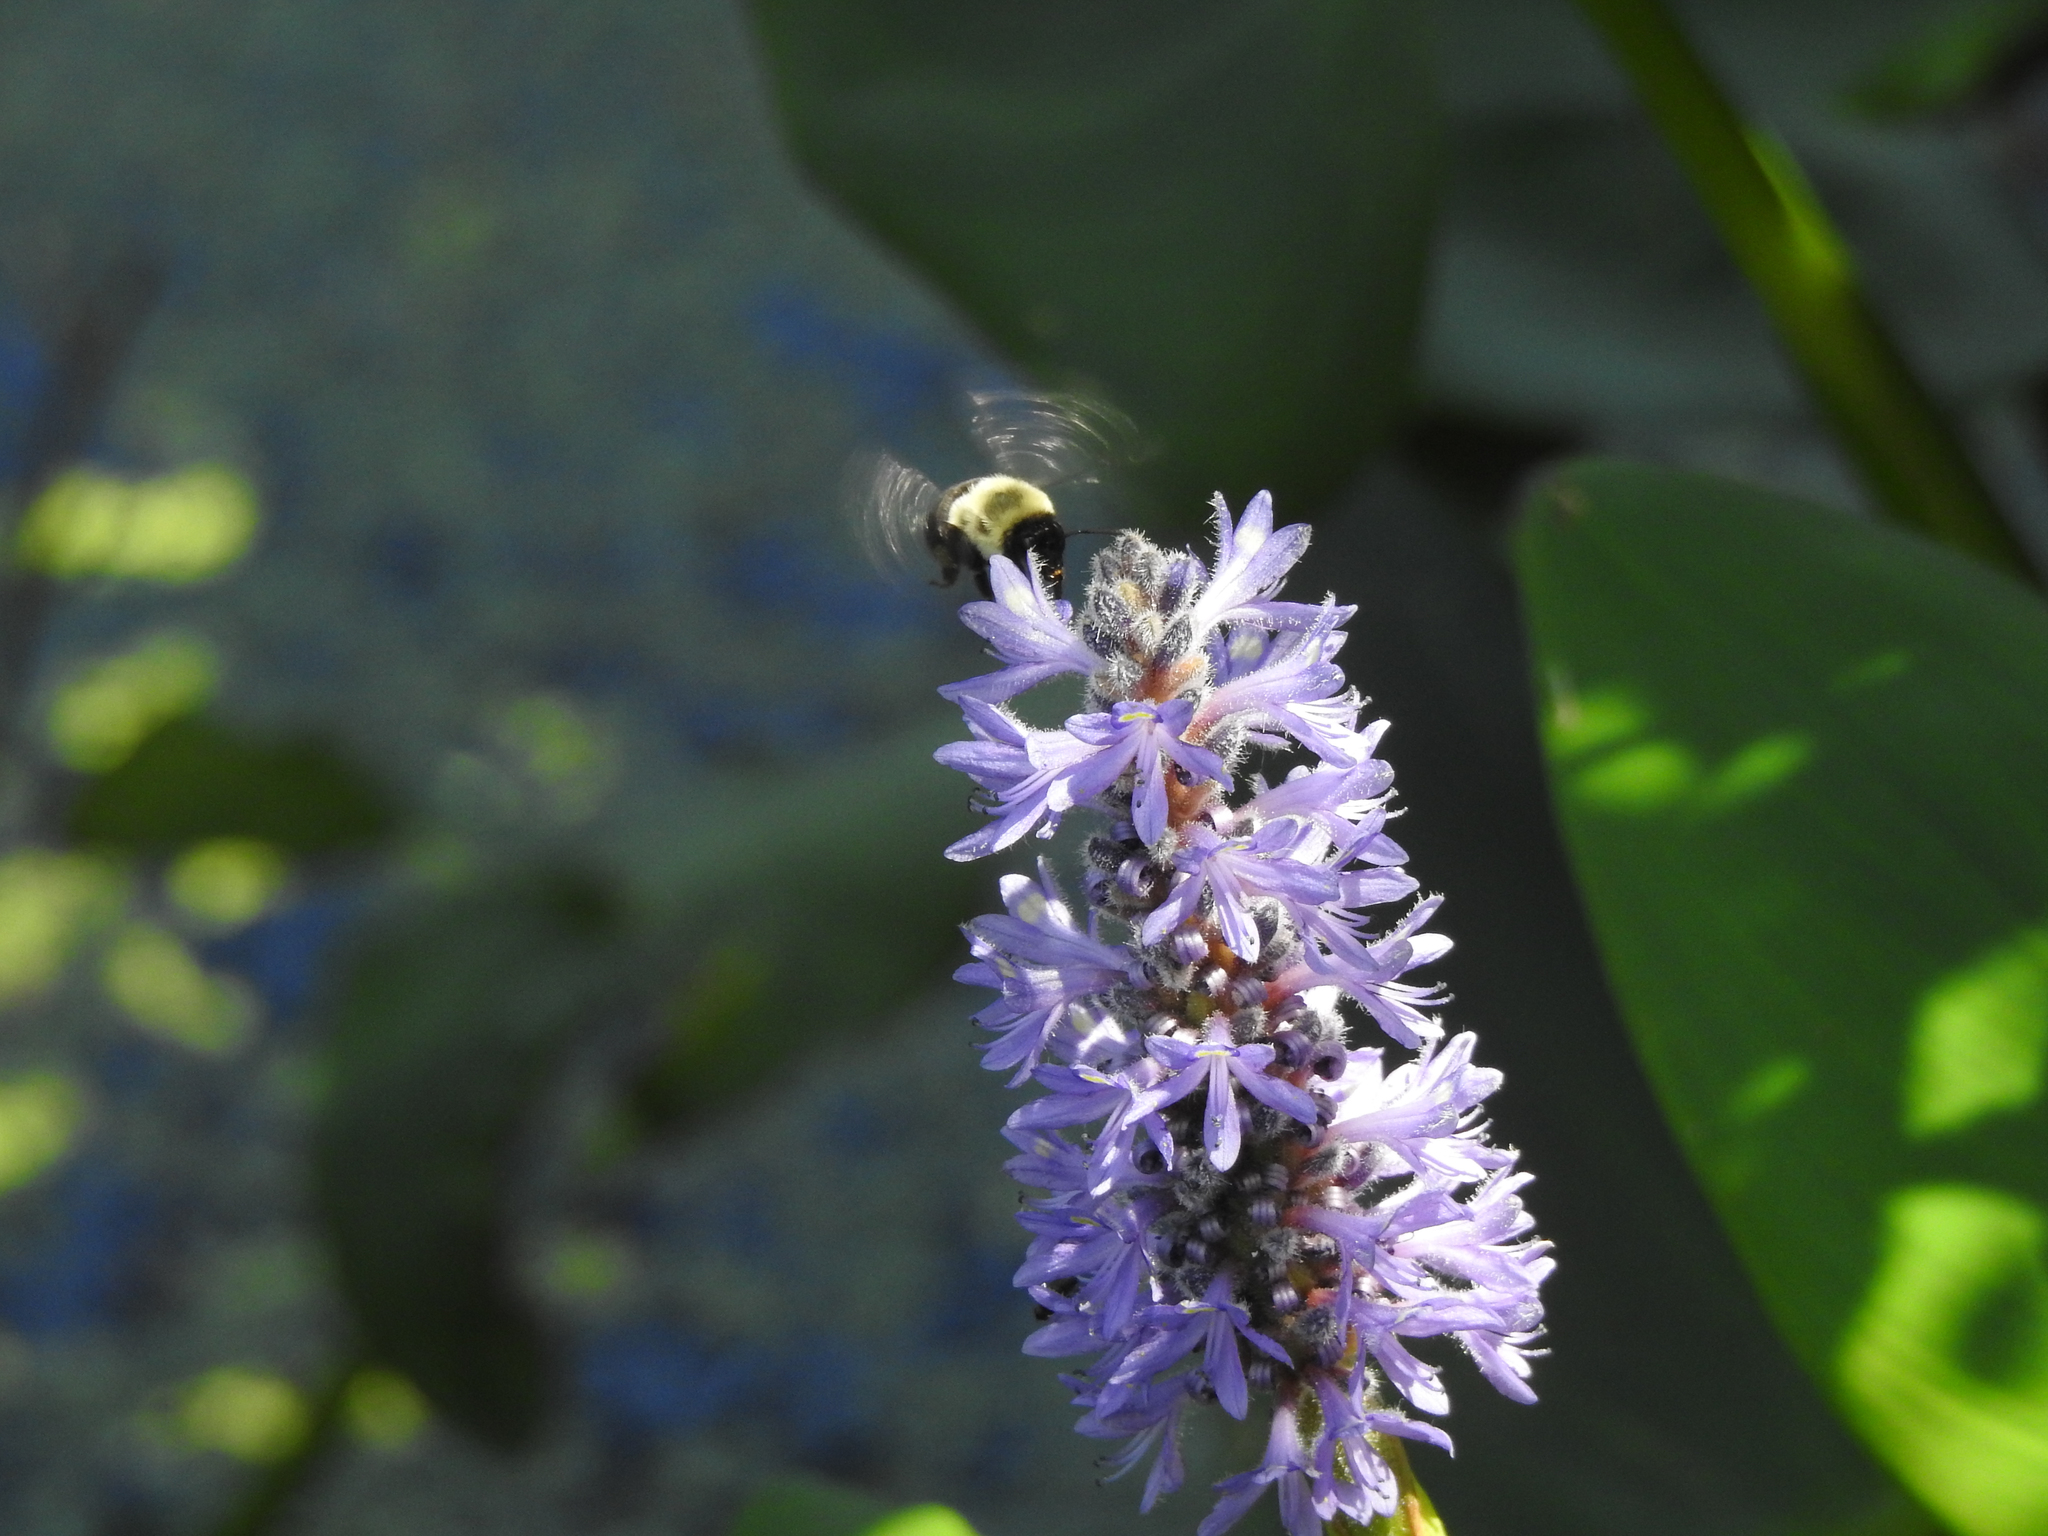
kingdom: Plantae
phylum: Tracheophyta
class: Liliopsida
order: Commelinales
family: Pontederiaceae
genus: Pontederia
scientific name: Pontederia cordata
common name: Pickerelweed
